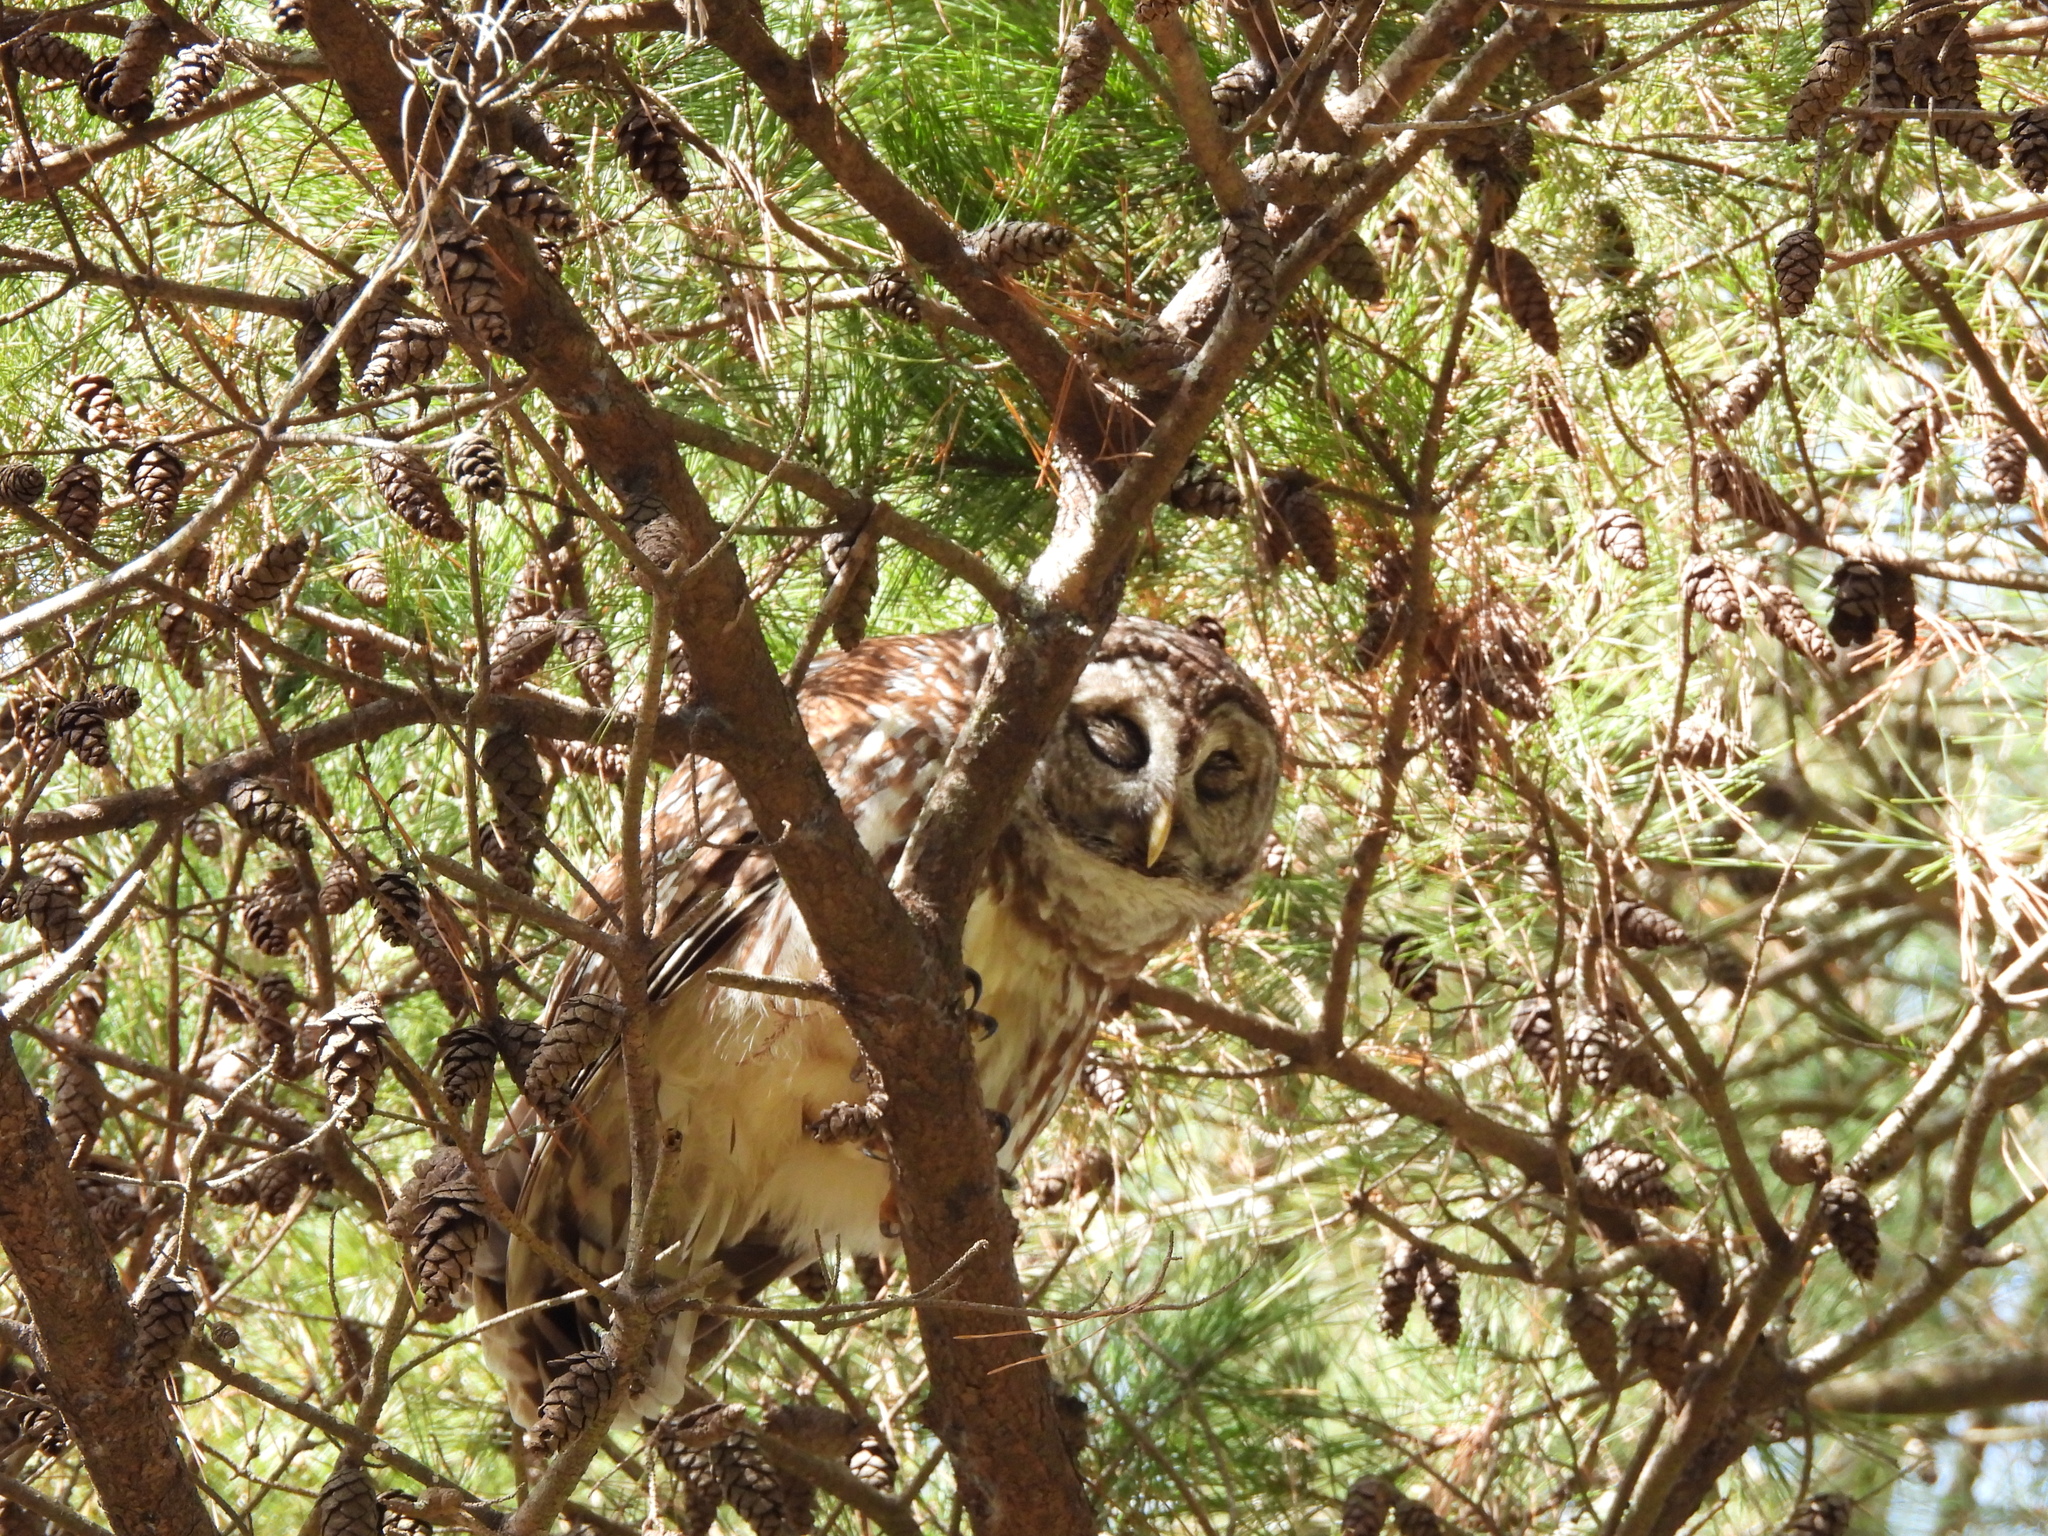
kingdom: Animalia
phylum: Chordata
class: Aves
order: Strigiformes
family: Strigidae
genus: Strix
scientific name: Strix varia
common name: Barred owl
